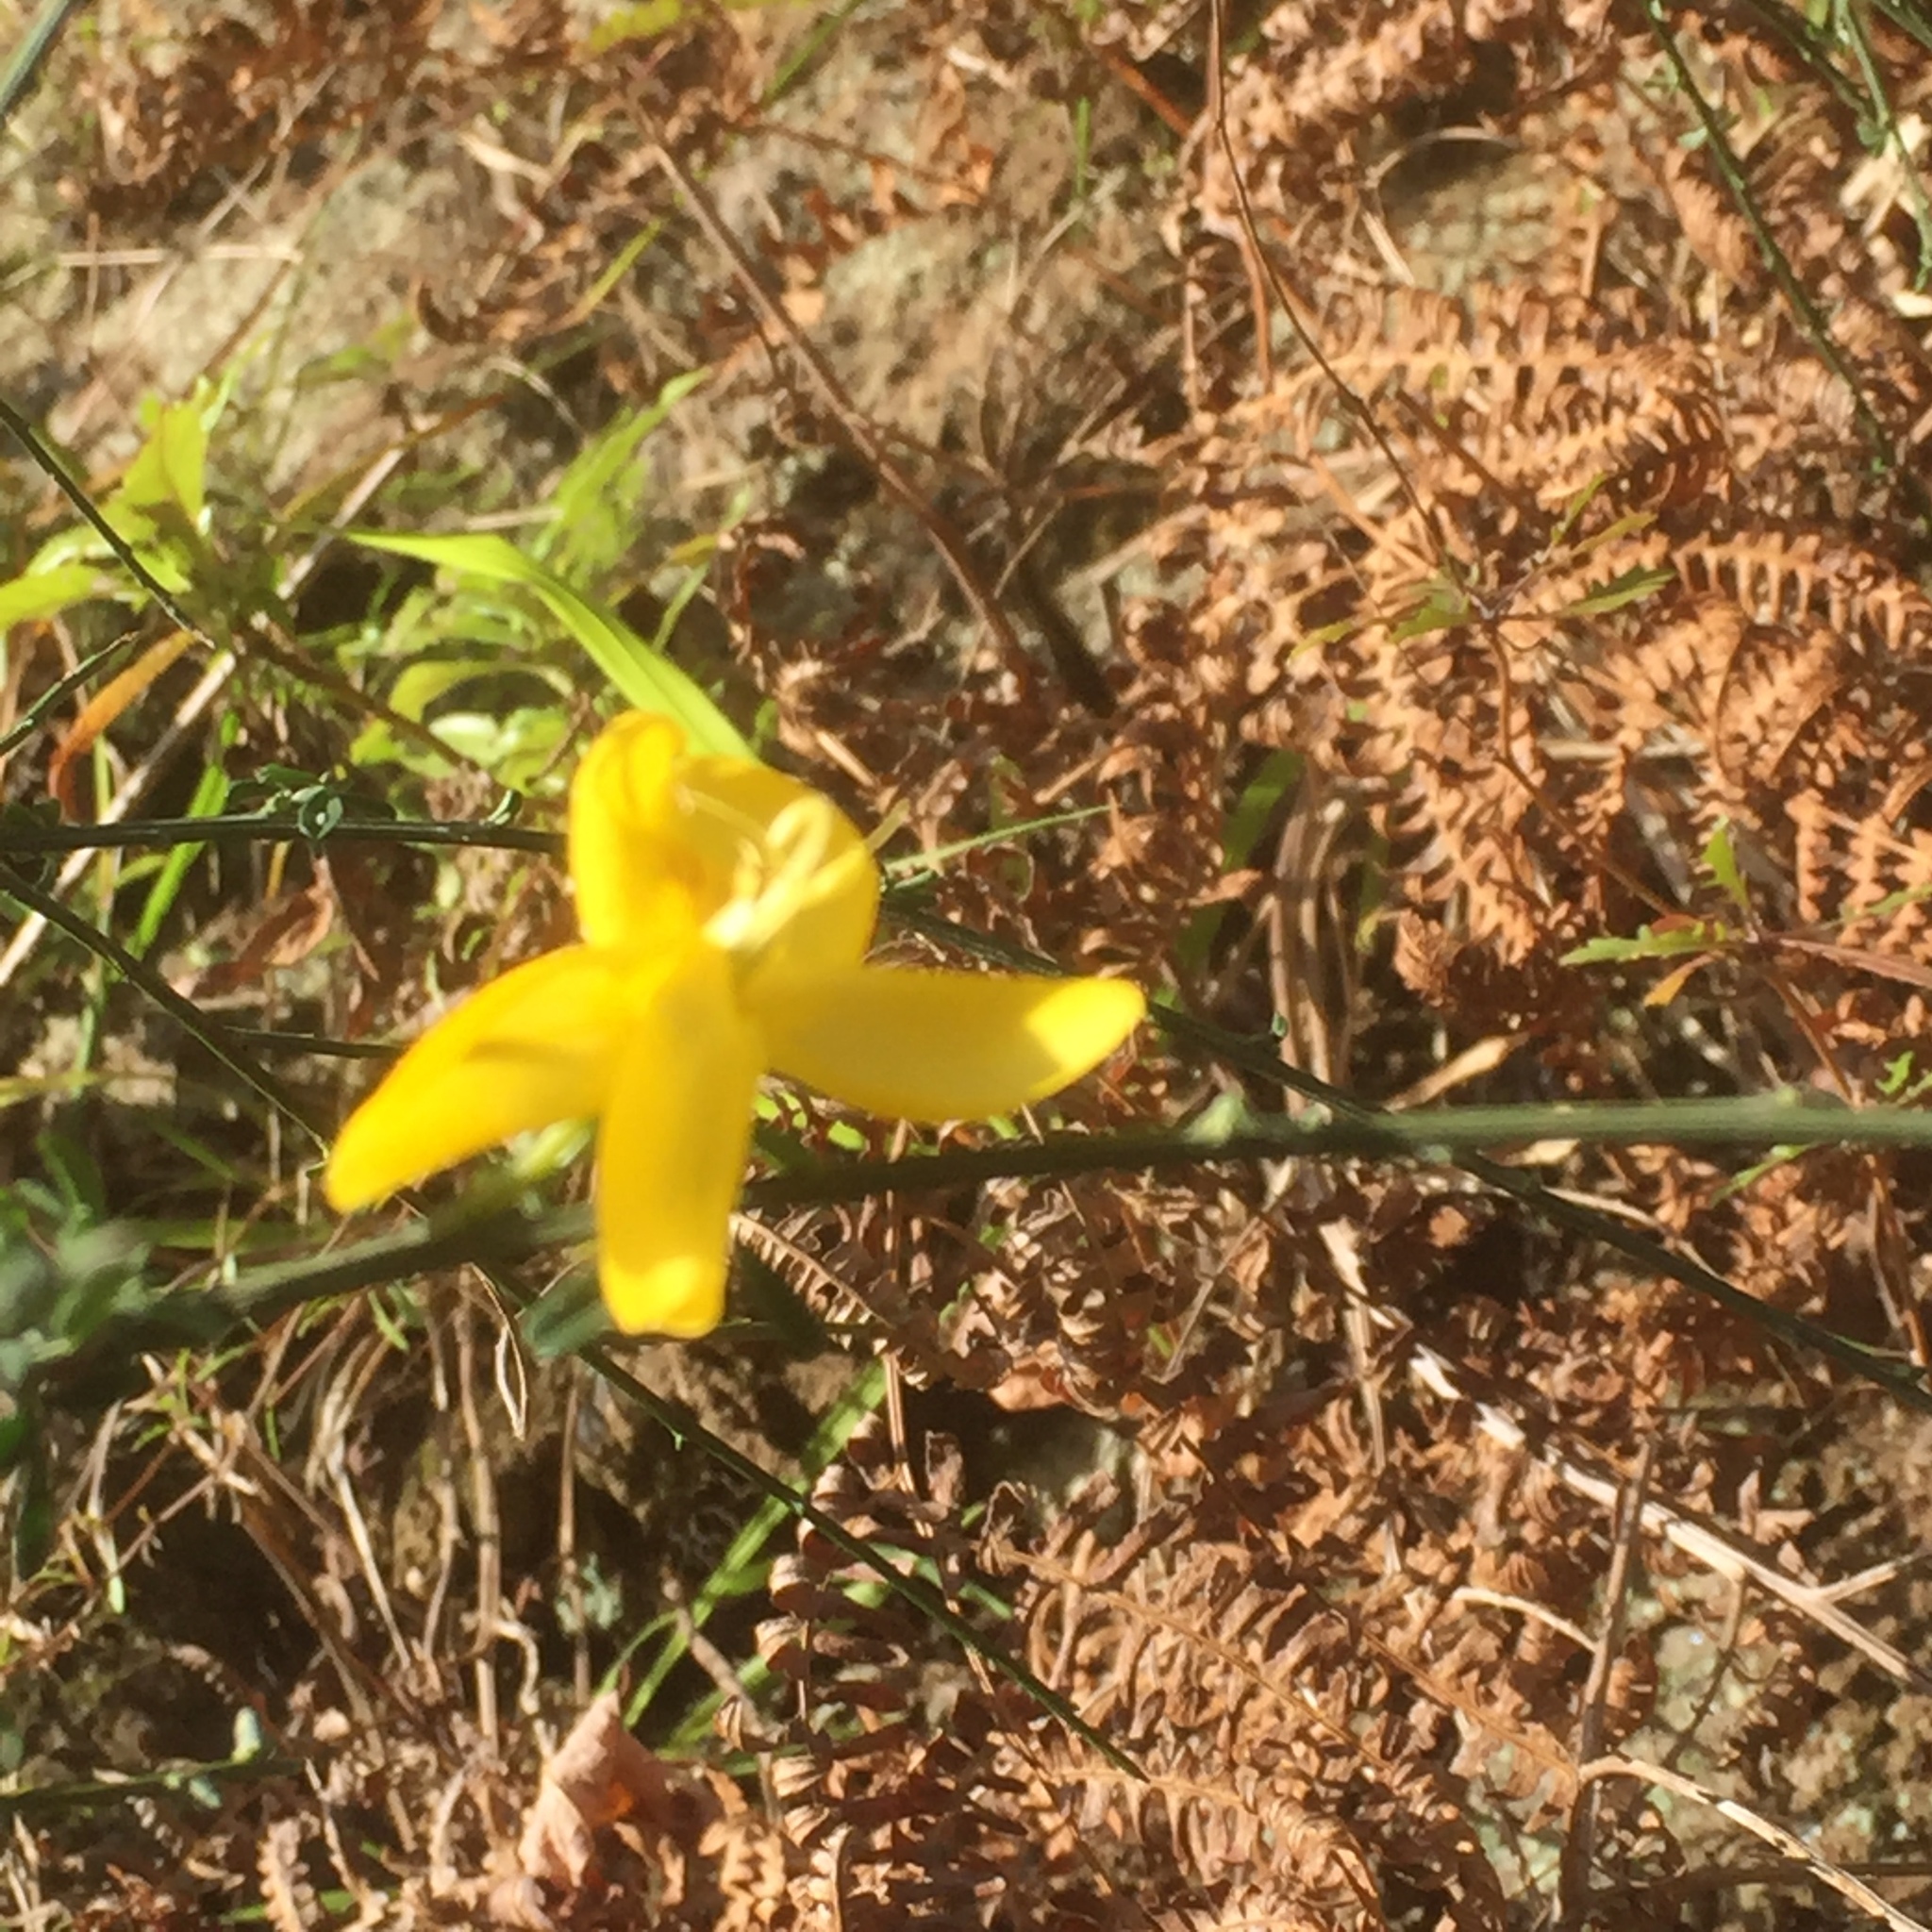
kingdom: Plantae
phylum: Tracheophyta
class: Magnoliopsida
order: Fabales
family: Fabaceae
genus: Spartium
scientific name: Spartium junceum
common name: Spanish broom
